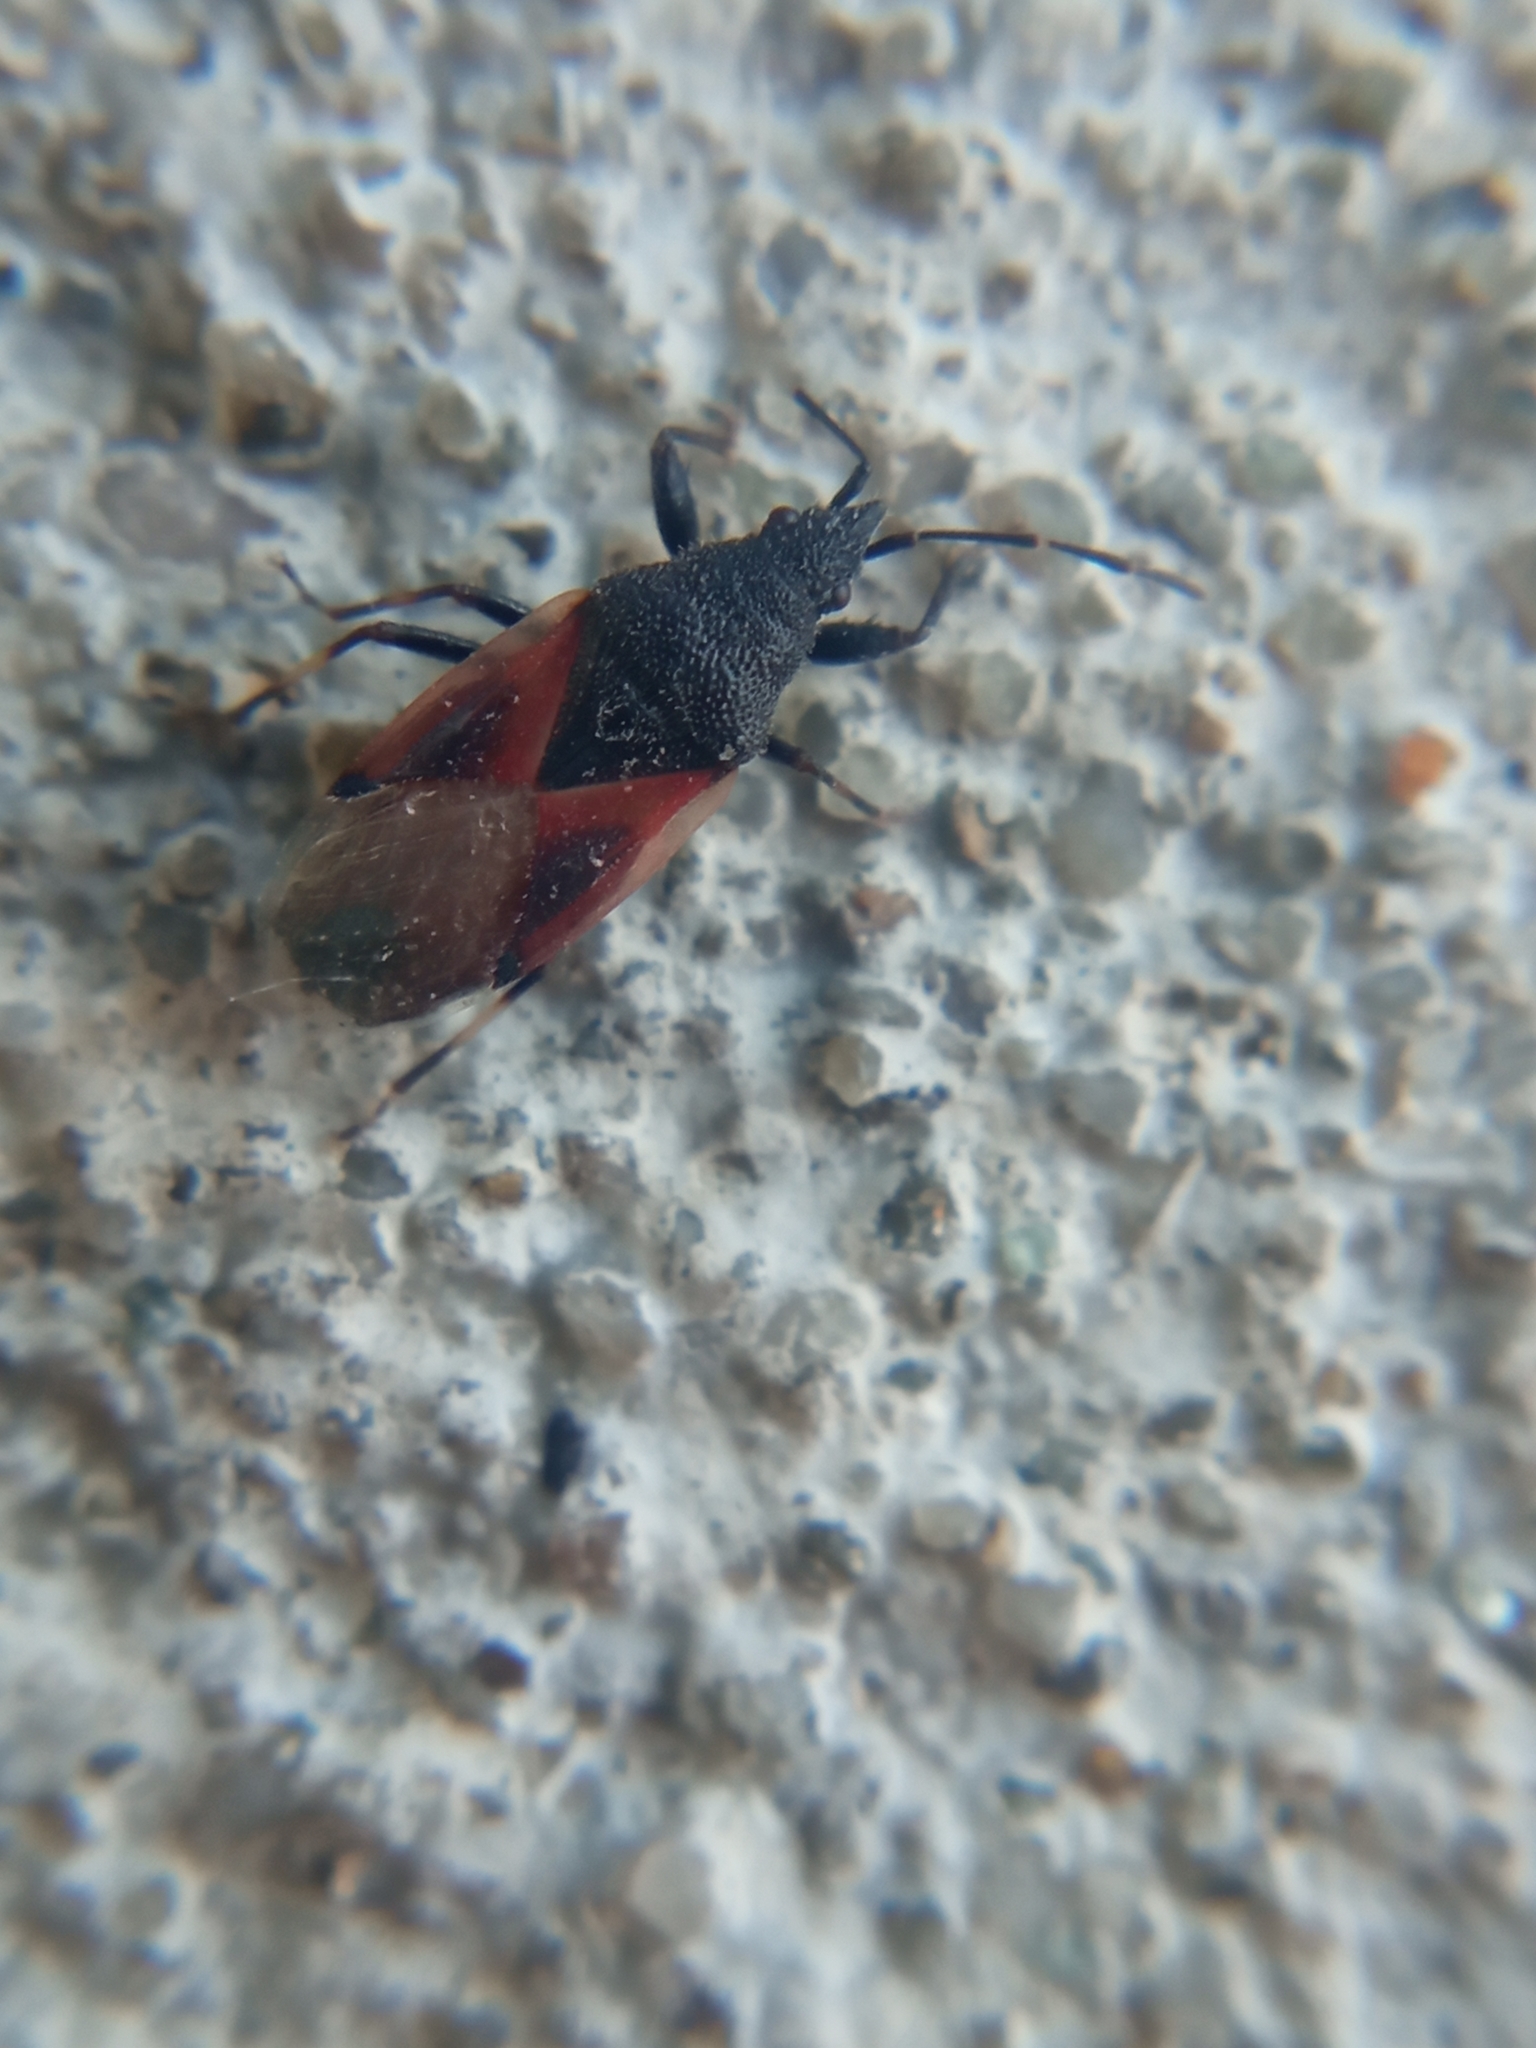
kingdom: Animalia
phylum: Arthropoda
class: Insecta
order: Hemiptera
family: Oxycarenidae
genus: Oxycarenus
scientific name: Oxycarenus lavaterae
